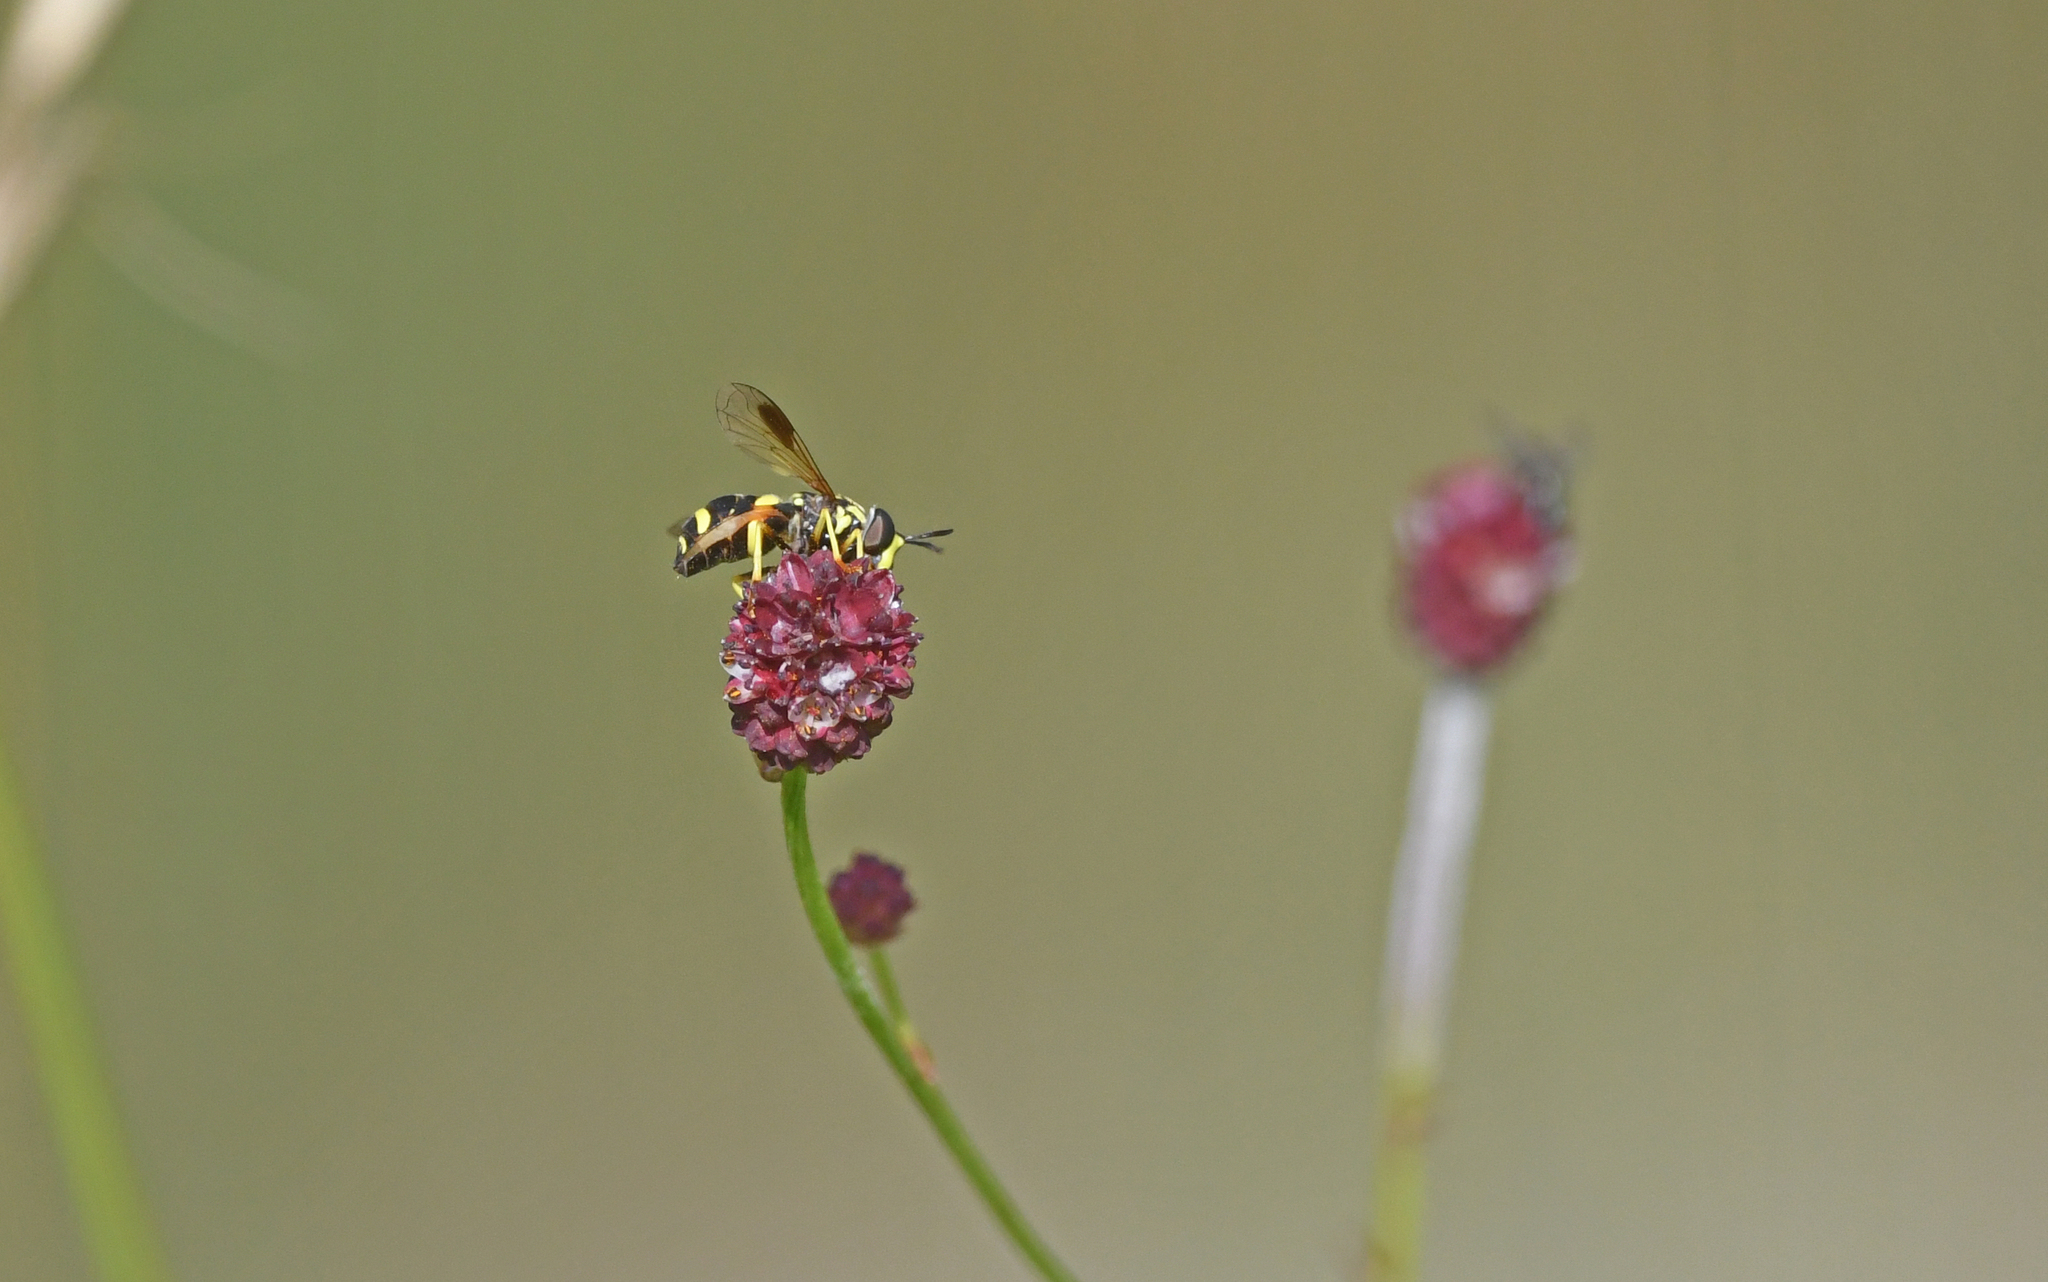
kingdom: Animalia
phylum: Arthropoda
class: Insecta
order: Diptera
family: Syrphidae
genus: Chrysotoxum
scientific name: Chrysotoxum bicincta
